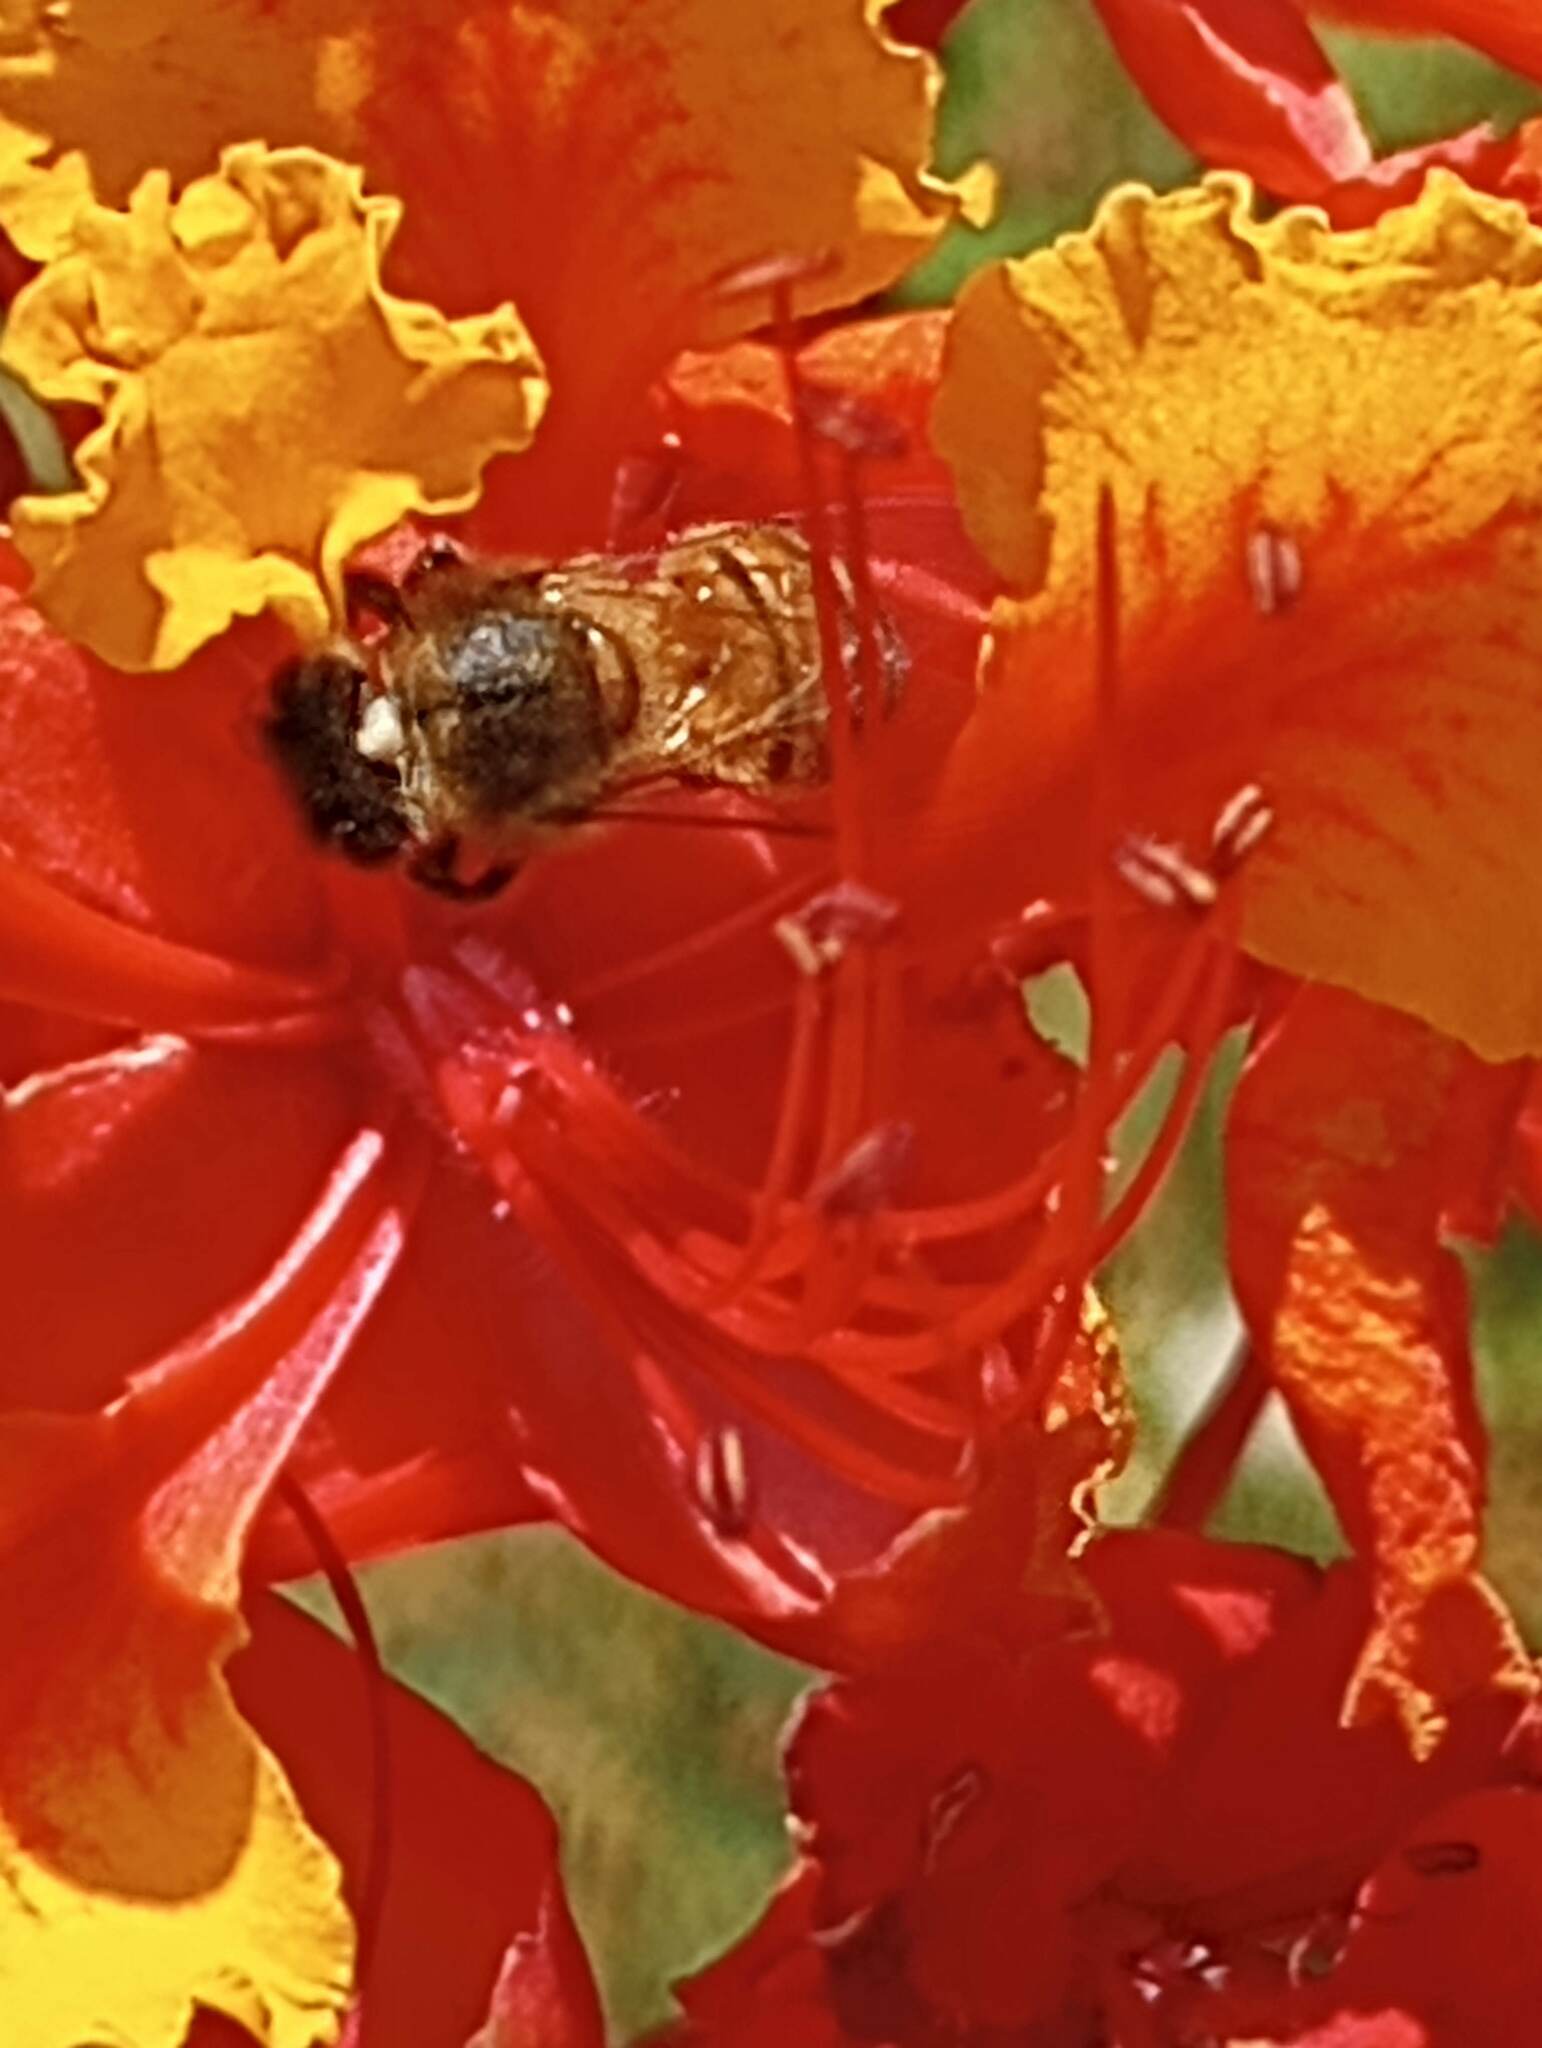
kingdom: Animalia
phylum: Arthropoda
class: Insecta
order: Hymenoptera
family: Apidae
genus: Apis
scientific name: Apis mellifera
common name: Honey bee
